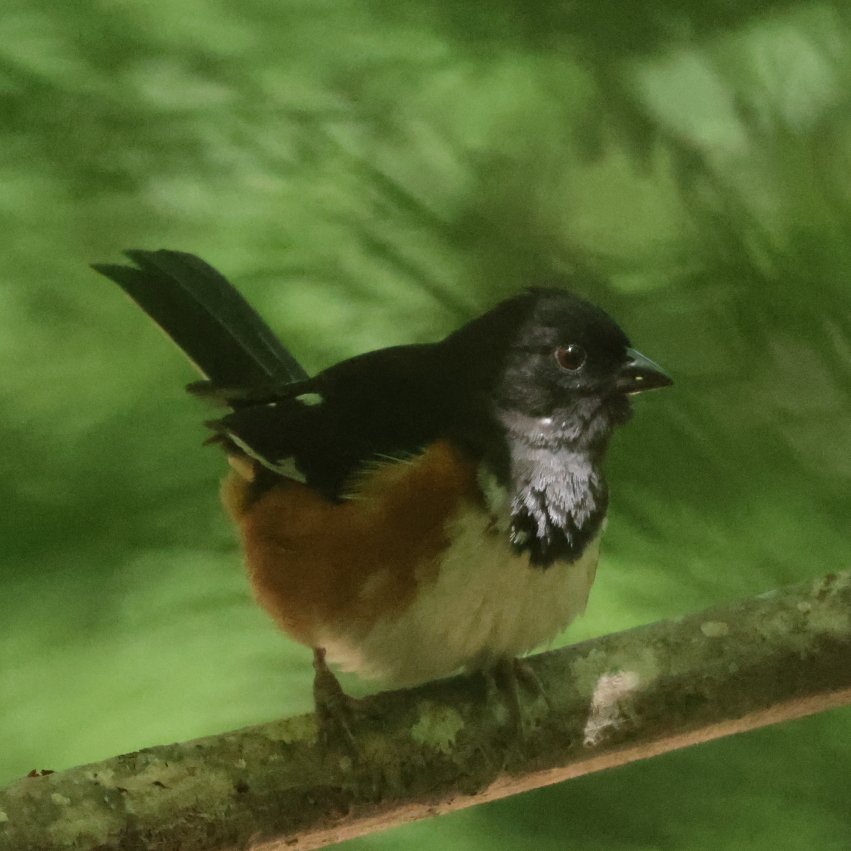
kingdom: Animalia
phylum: Chordata
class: Aves
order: Passeriformes
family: Passerellidae
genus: Pipilo
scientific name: Pipilo erythrophthalmus
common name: Eastern towhee
